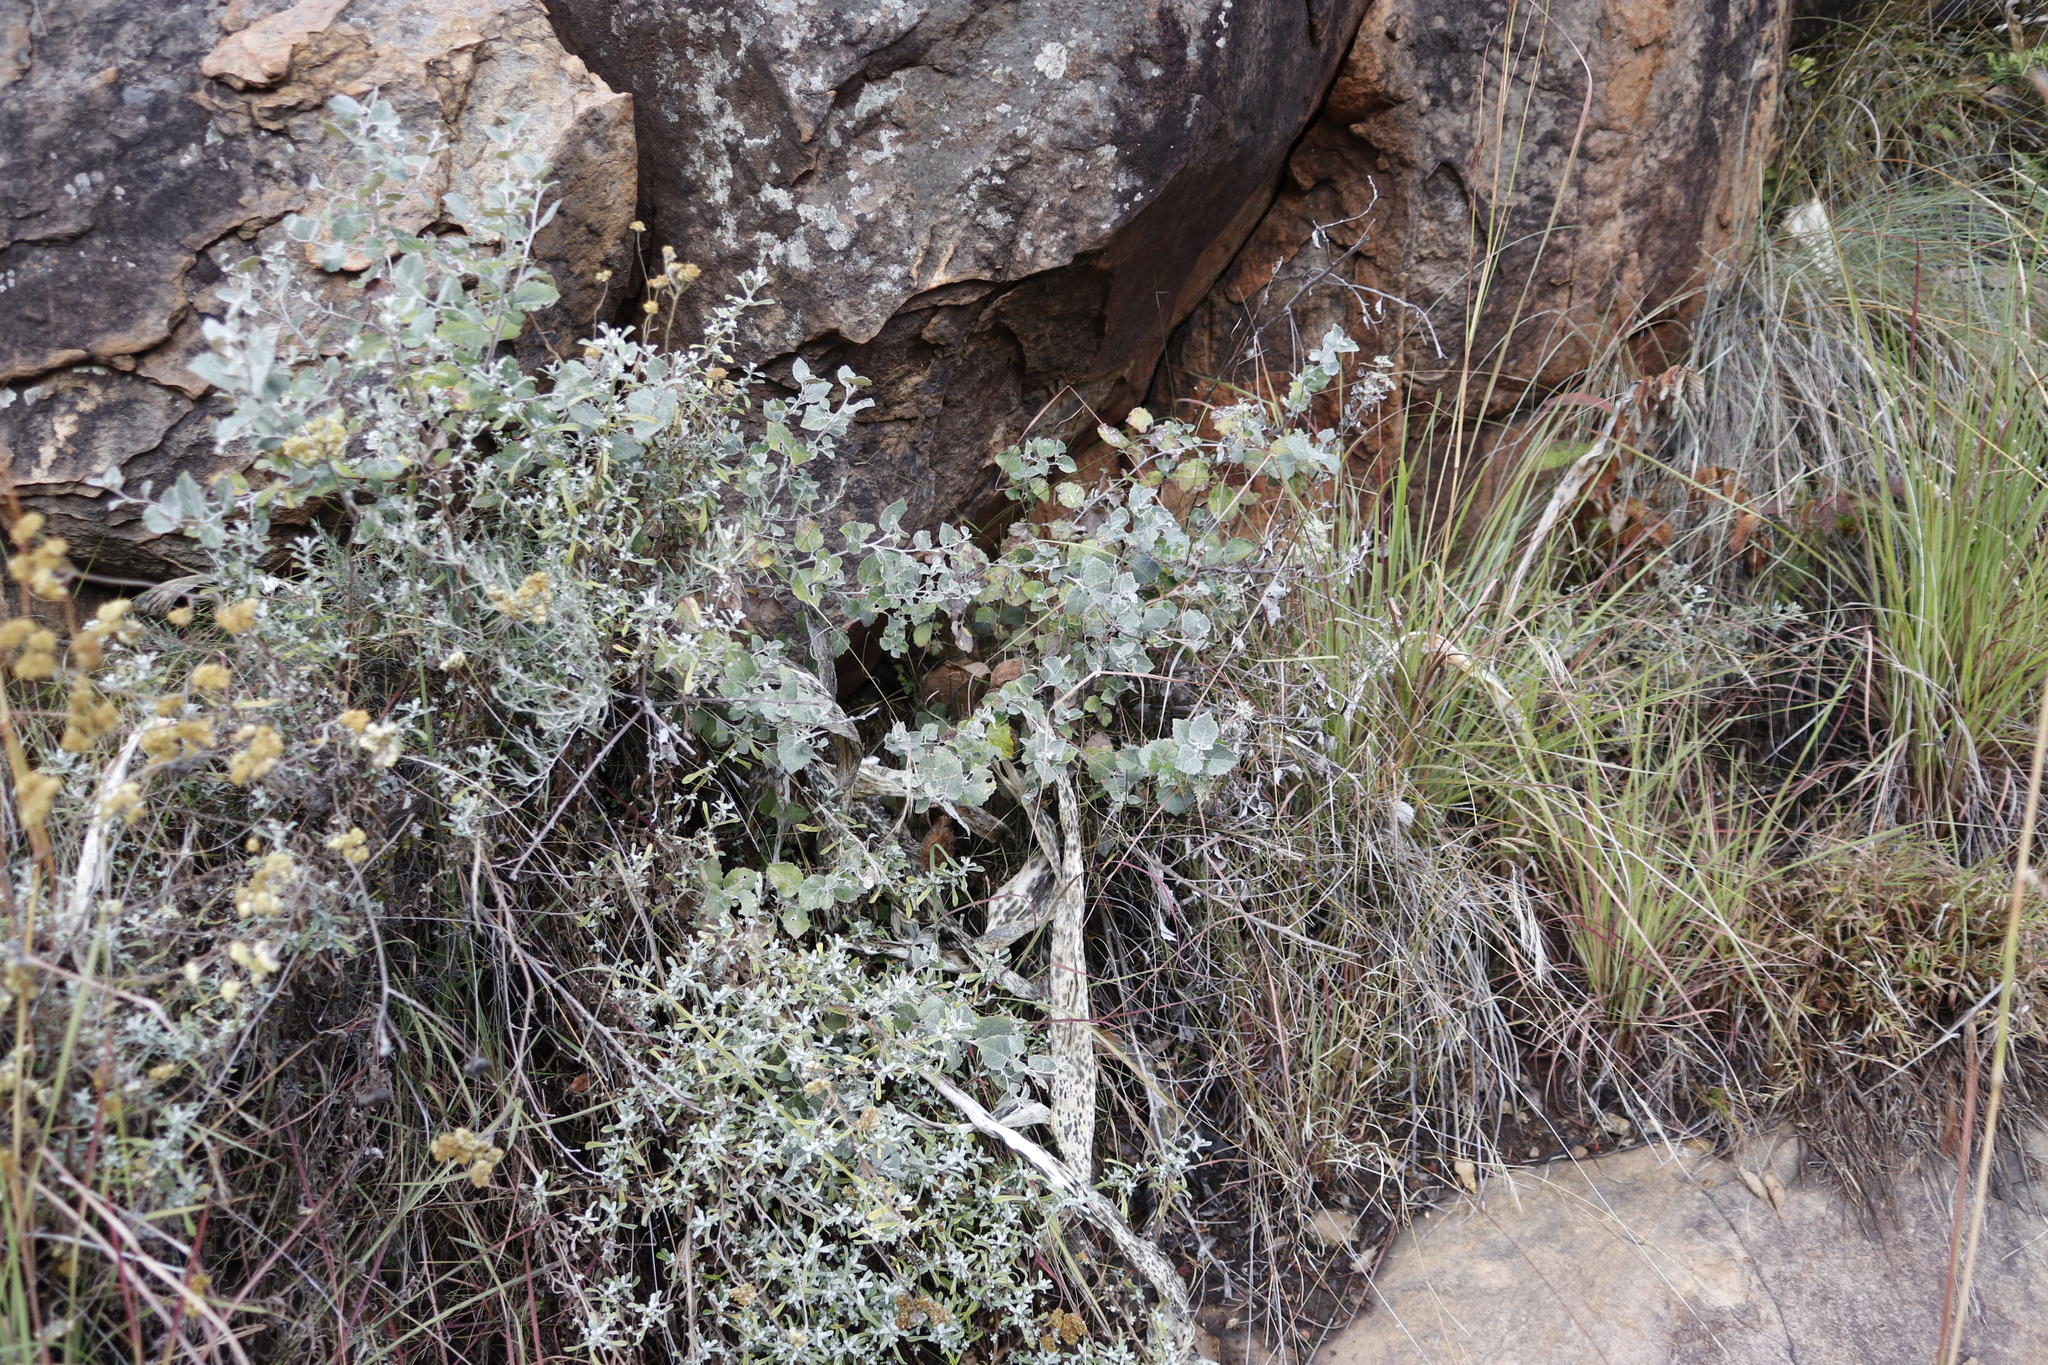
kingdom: Plantae
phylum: Tracheophyta
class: Magnoliopsida
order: Asterales
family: Asteraceae
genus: Printzia
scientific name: Printzia pyrifolia
